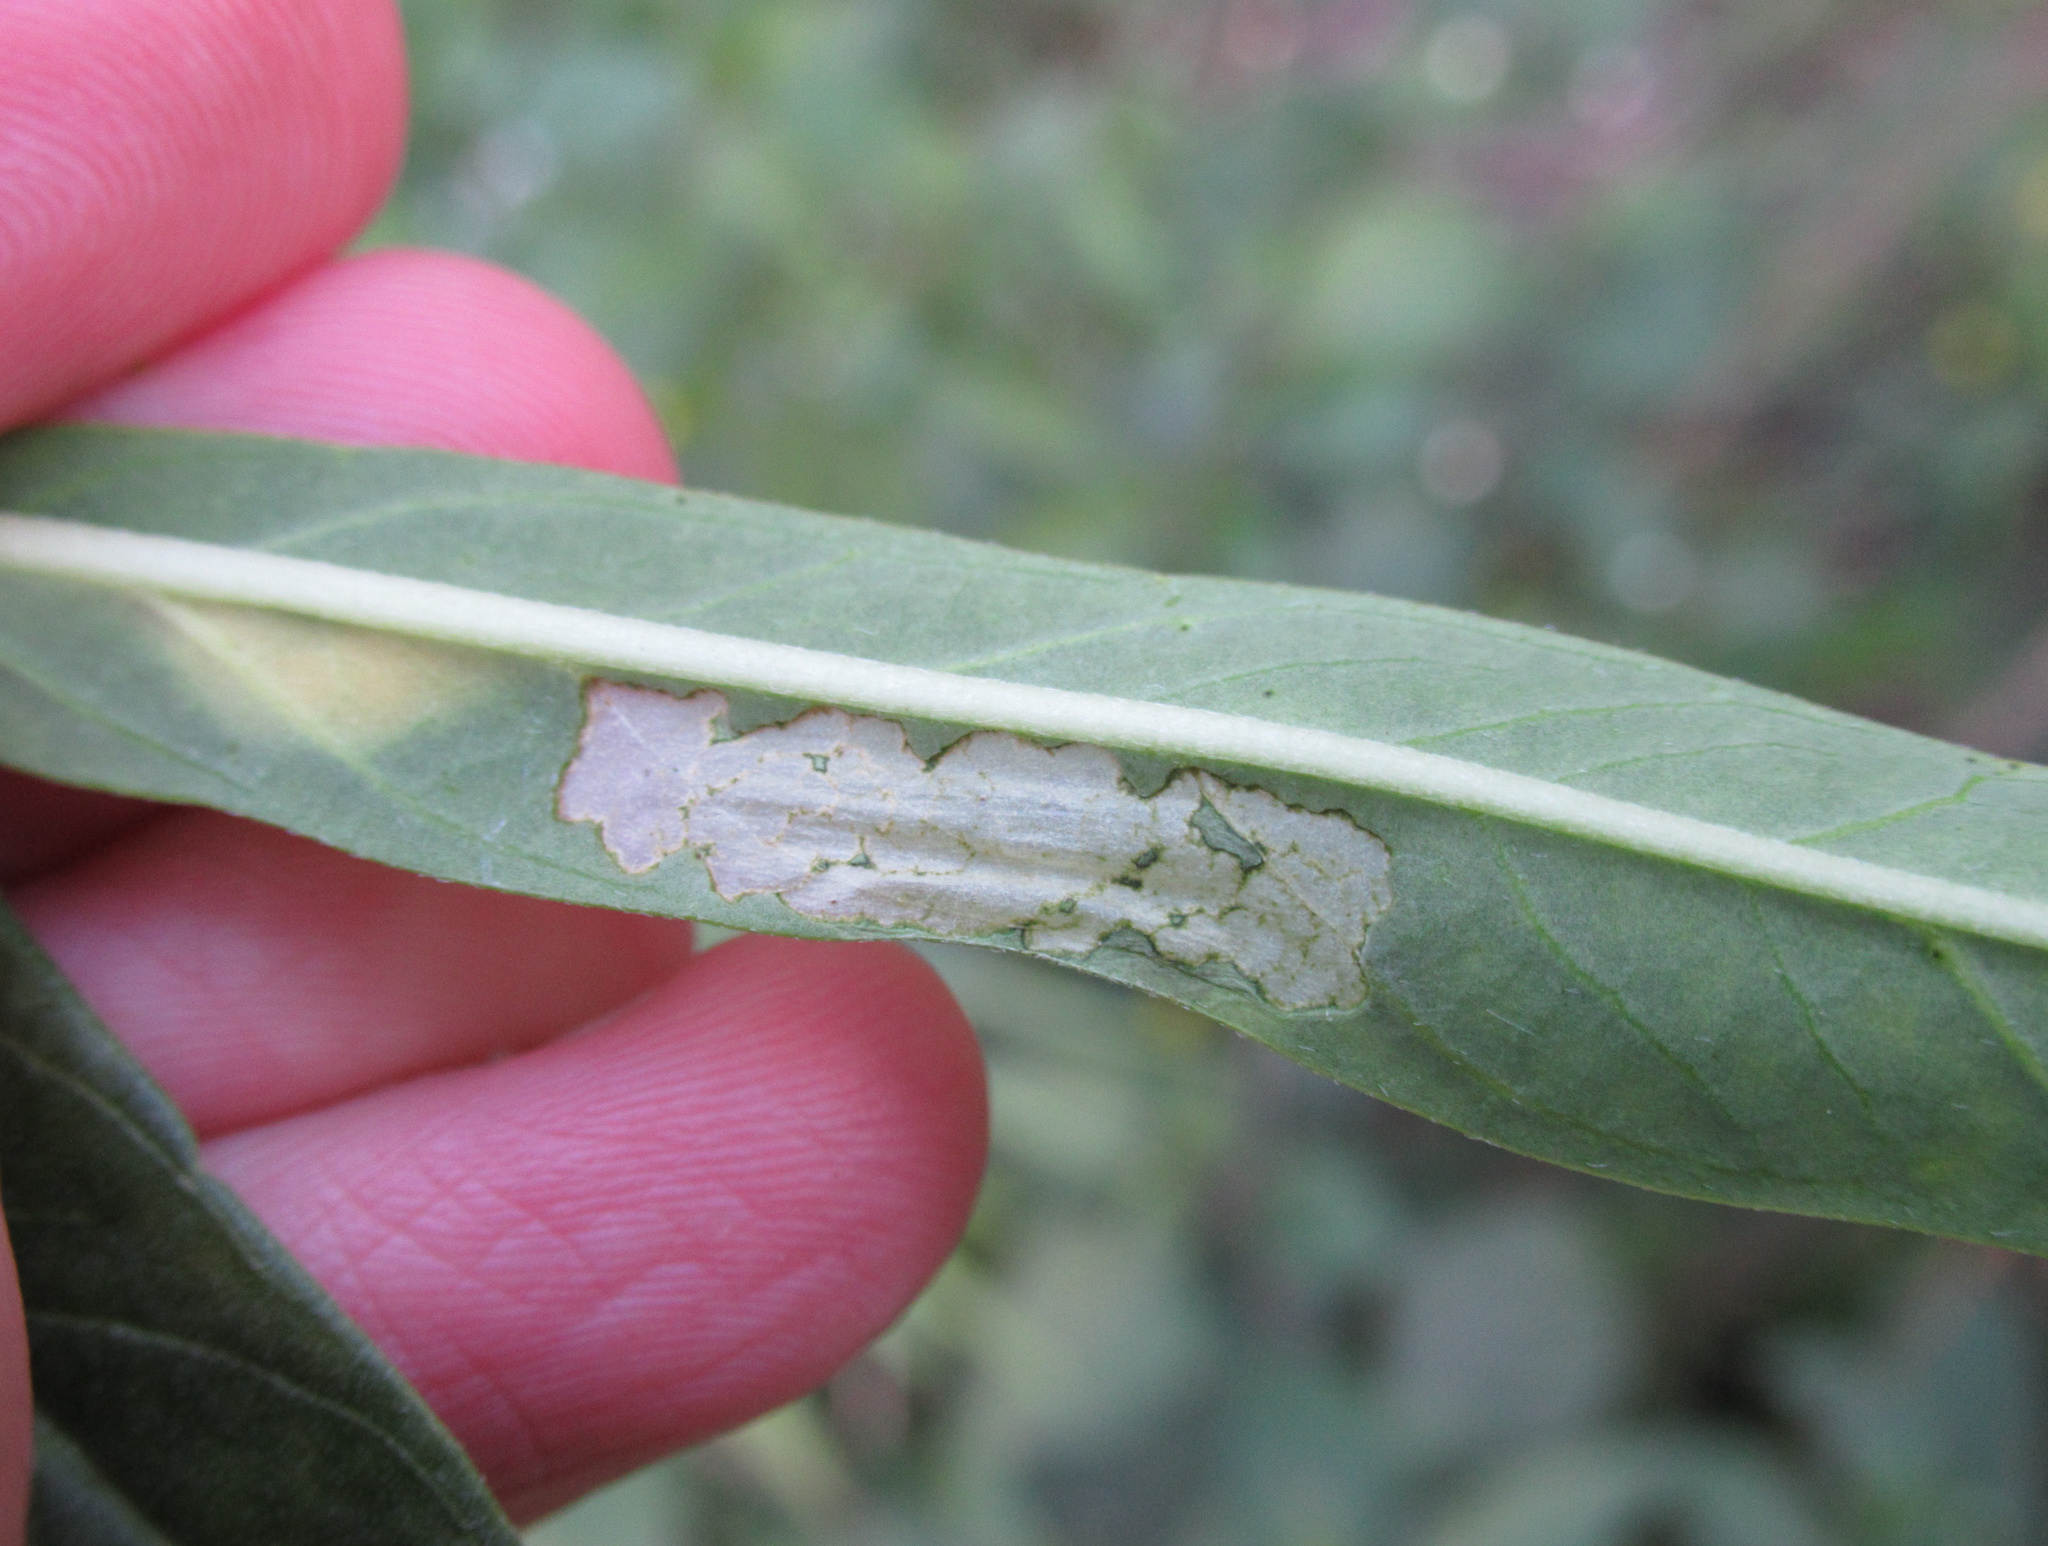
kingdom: Animalia
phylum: Arthropoda
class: Insecta
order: Lepidoptera
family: Nymphalidae
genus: Danaus
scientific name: Danaus plexippus
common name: Monarch
